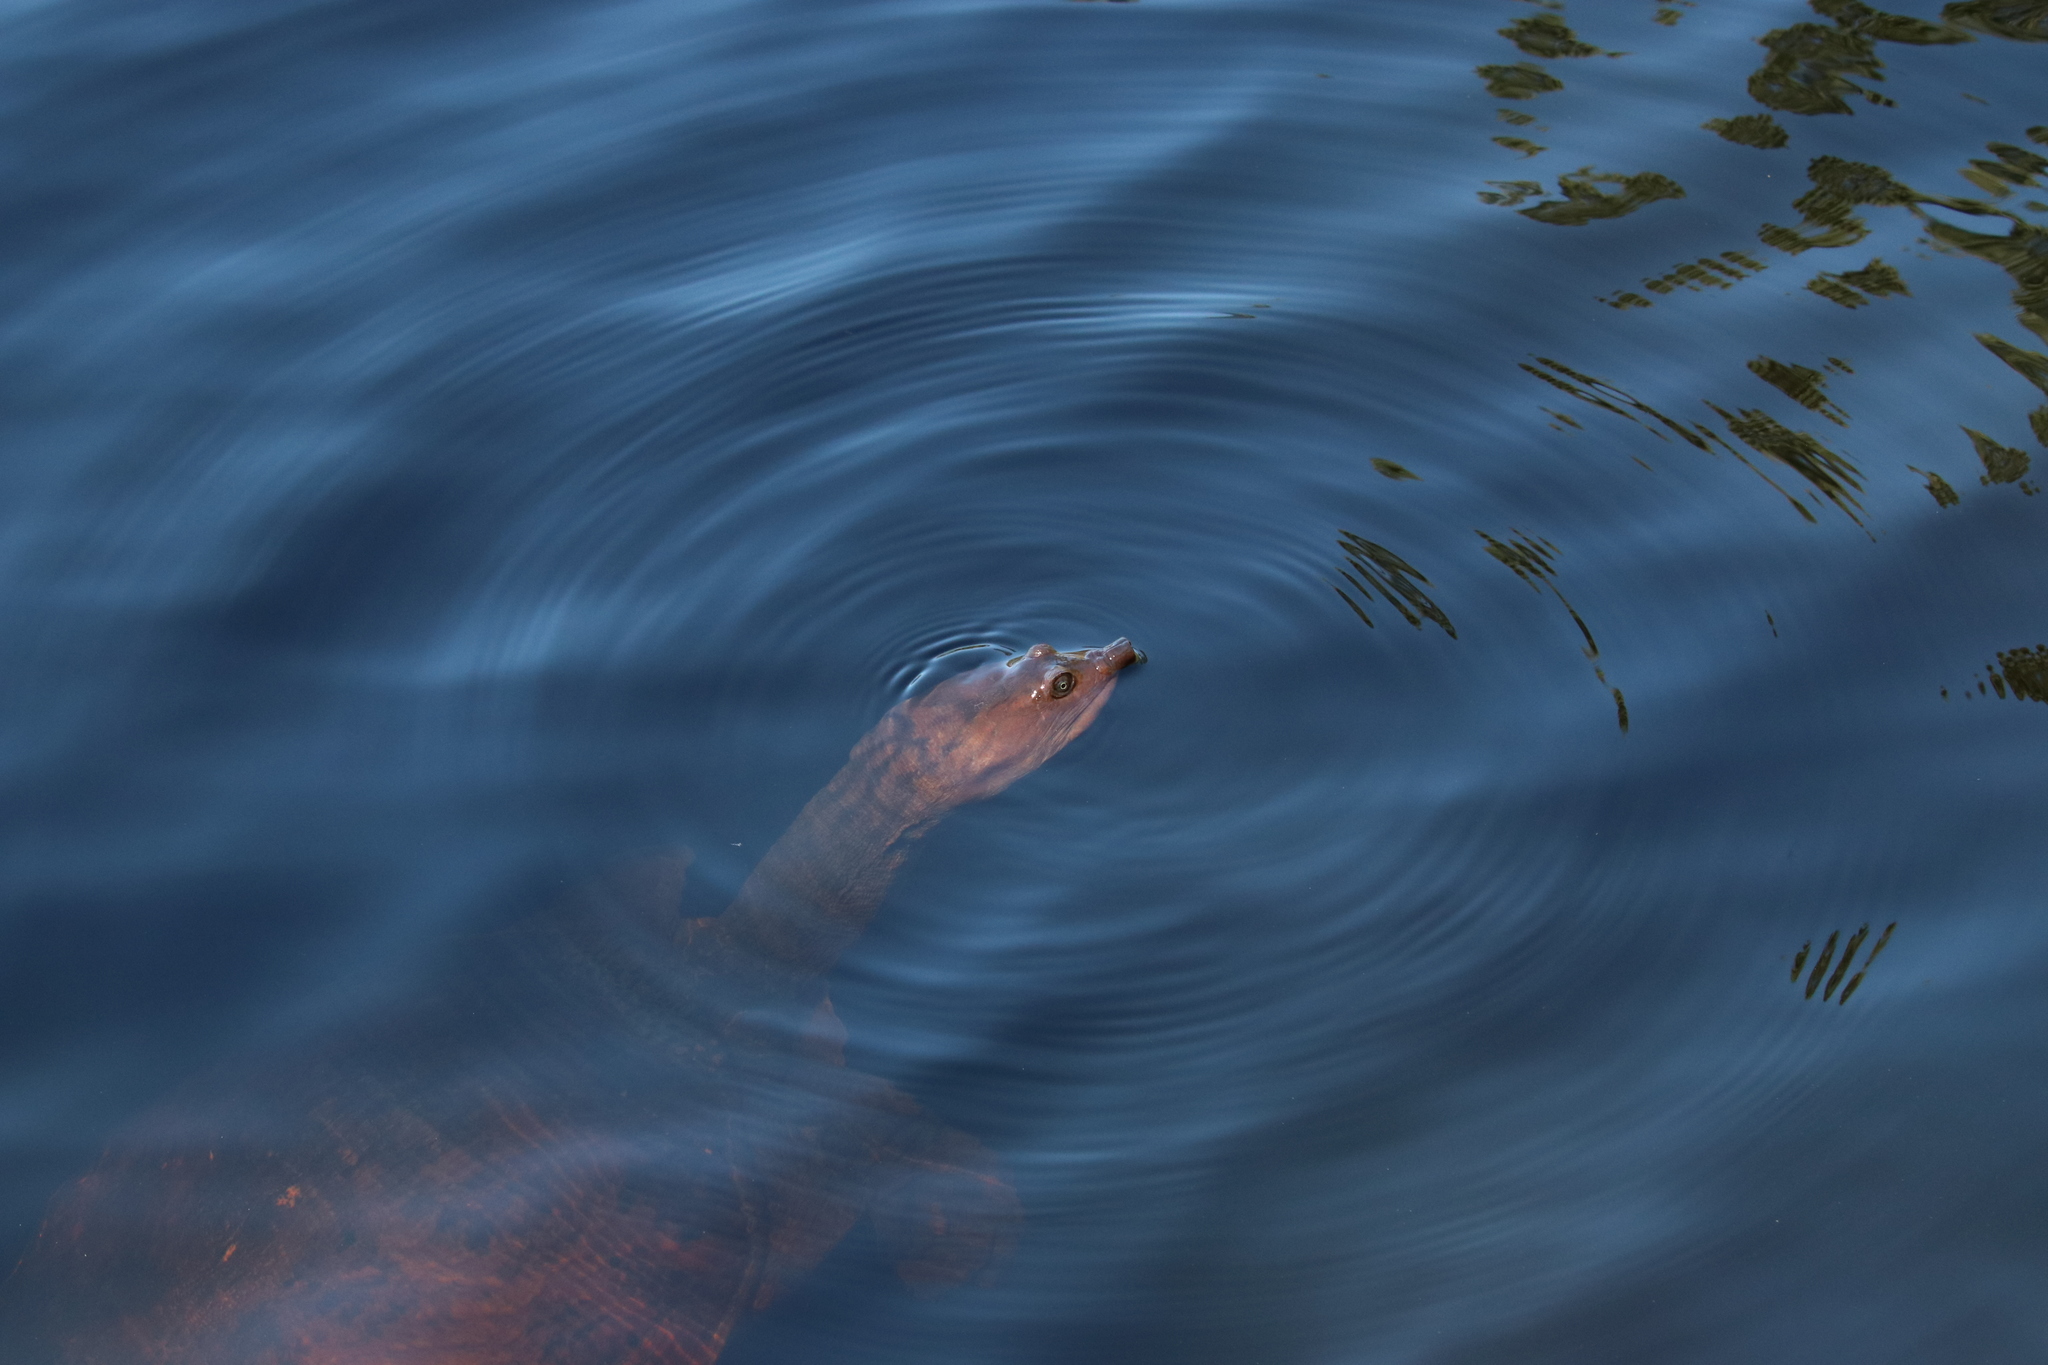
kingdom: Animalia
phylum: Chordata
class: Testudines
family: Trionychidae
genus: Apalone
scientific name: Apalone ferox
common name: Florida softshell turtle
